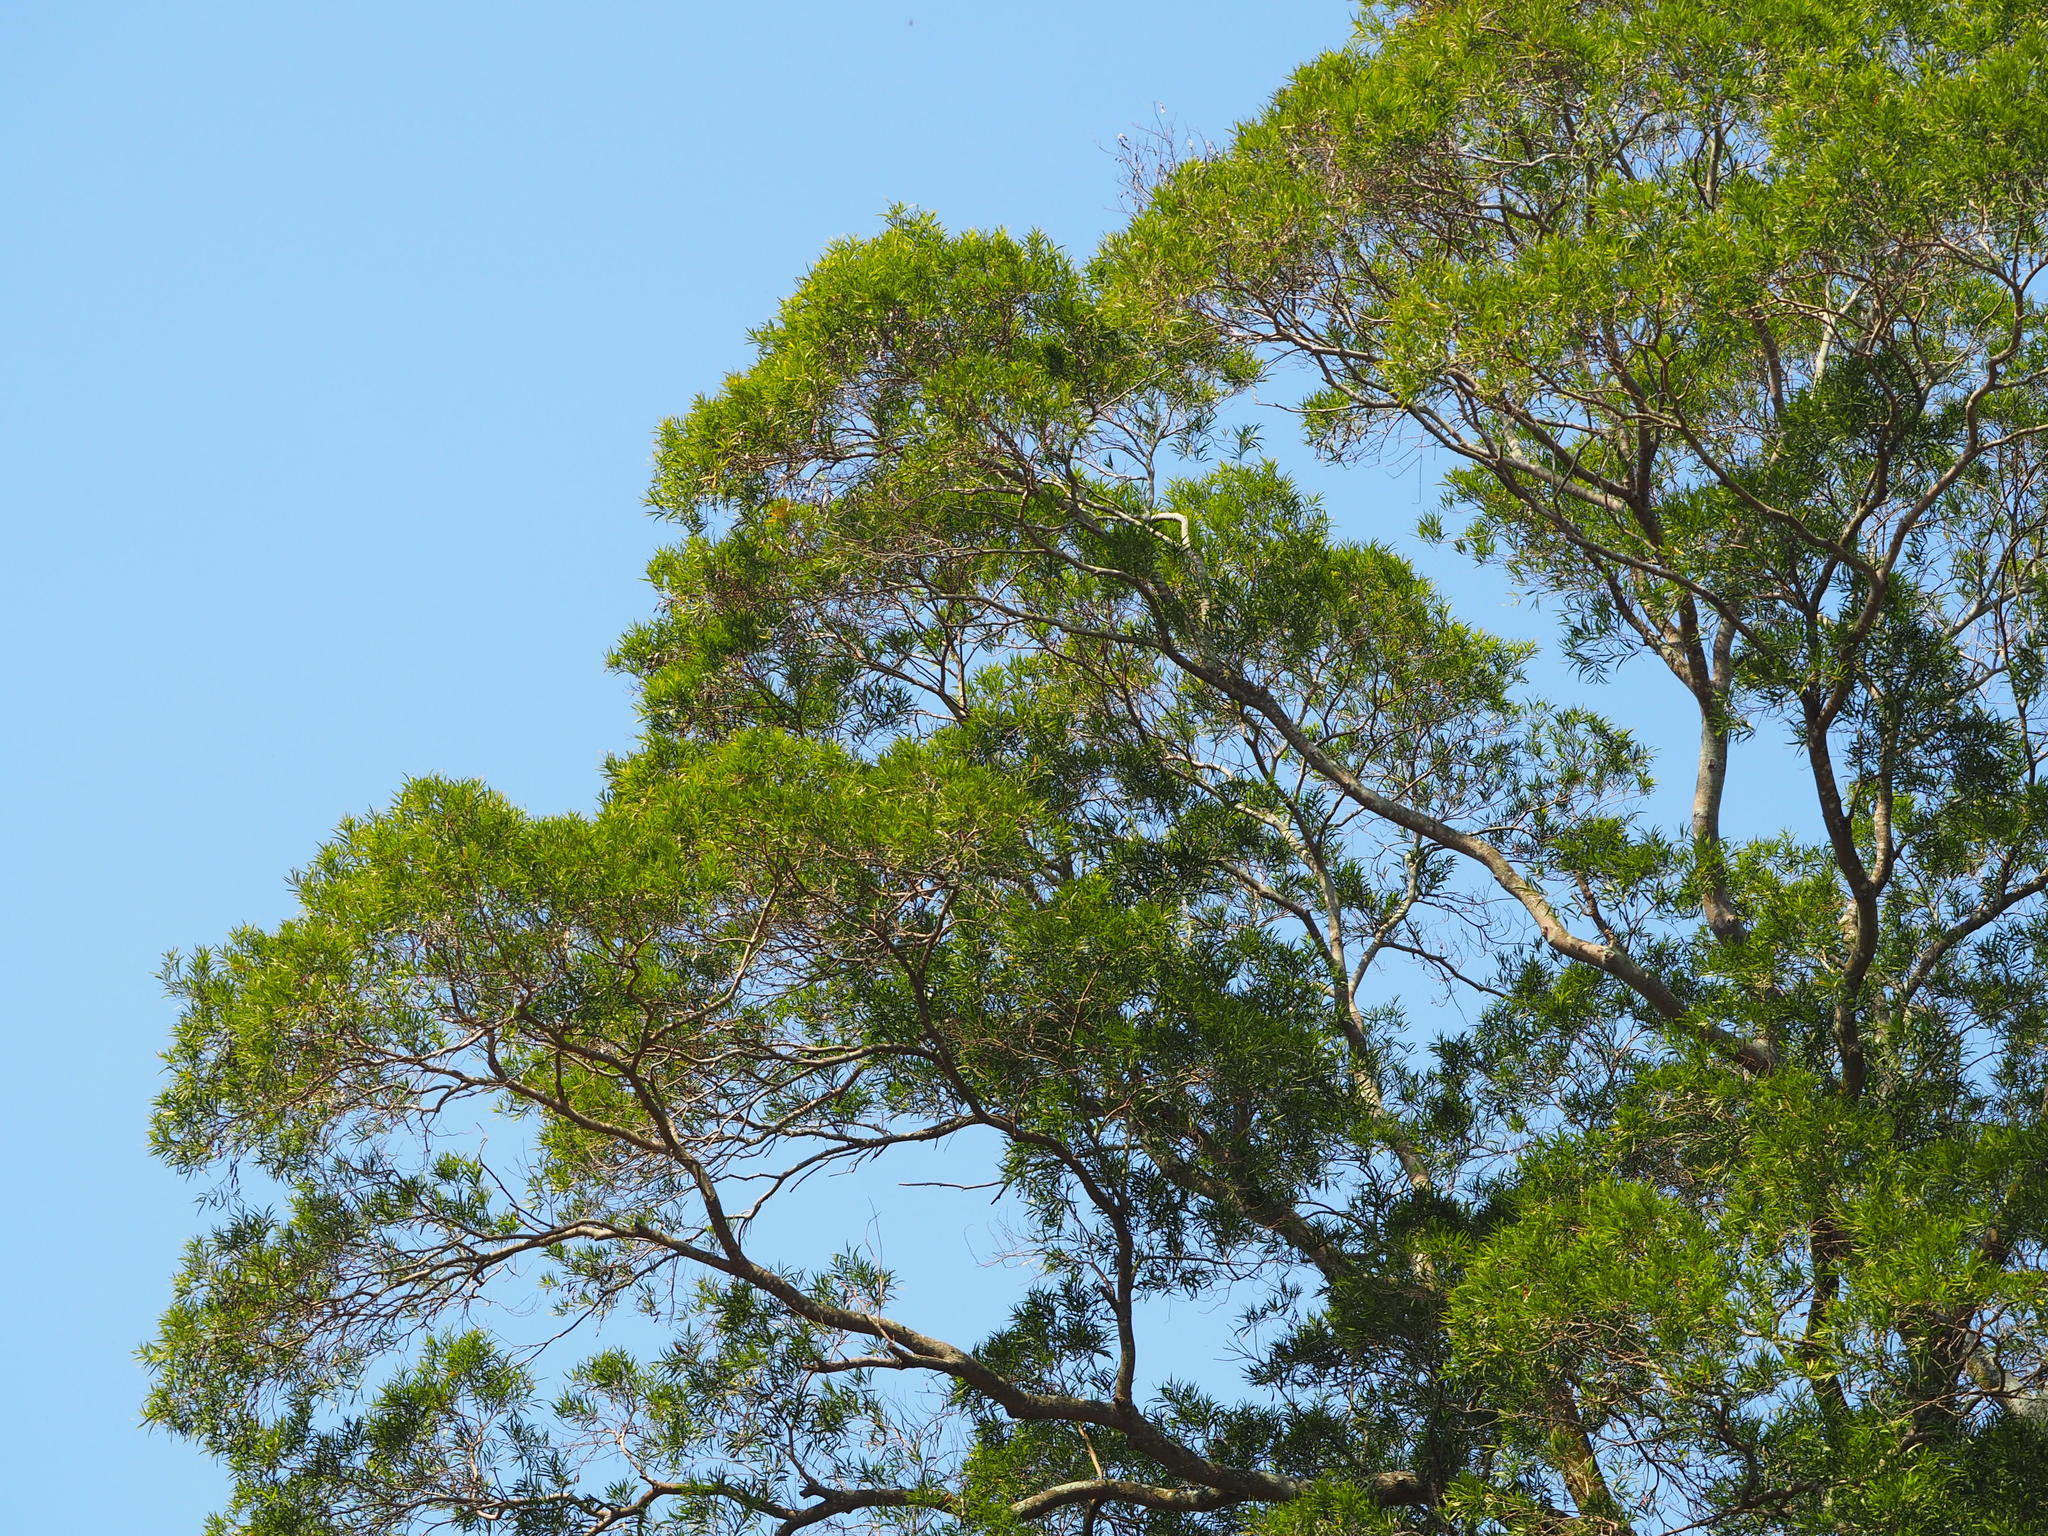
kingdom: Plantae
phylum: Tracheophyta
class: Magnoliopsida
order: Fabales
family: Fabaceae
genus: Acacia
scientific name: Acacia confusa
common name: Formosan koa
